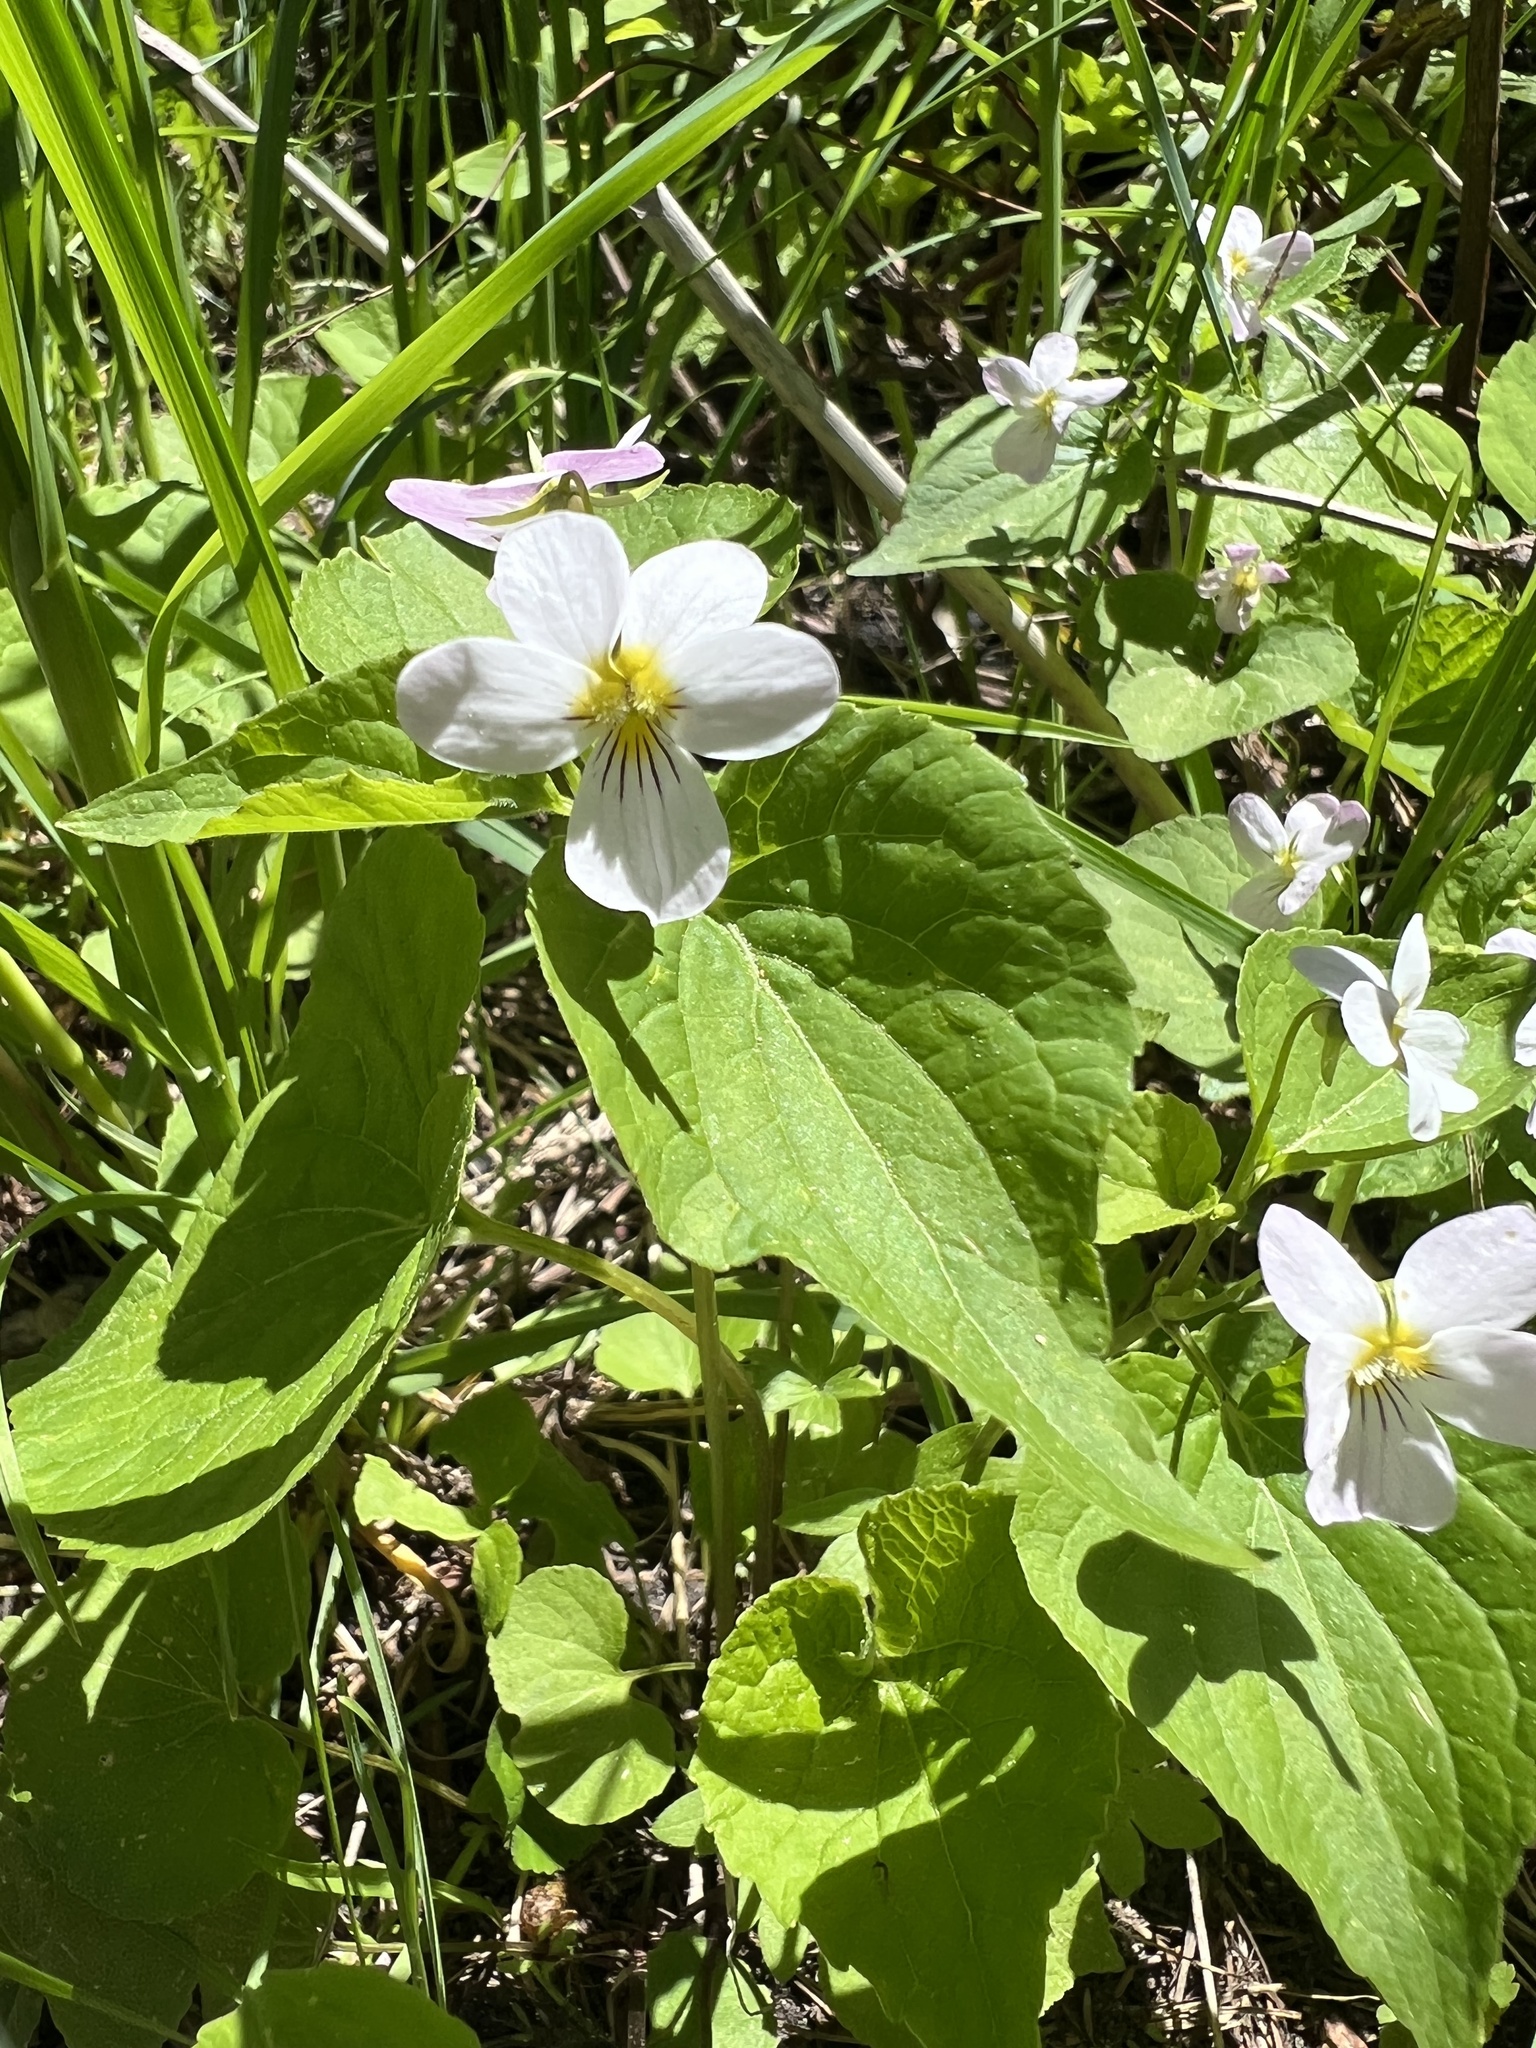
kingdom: Plantae
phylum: Tracheophyta
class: Magnoliopsida
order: Malpighiales
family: Violaceae
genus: Viola
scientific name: Viola canadensis
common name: Canada violet
